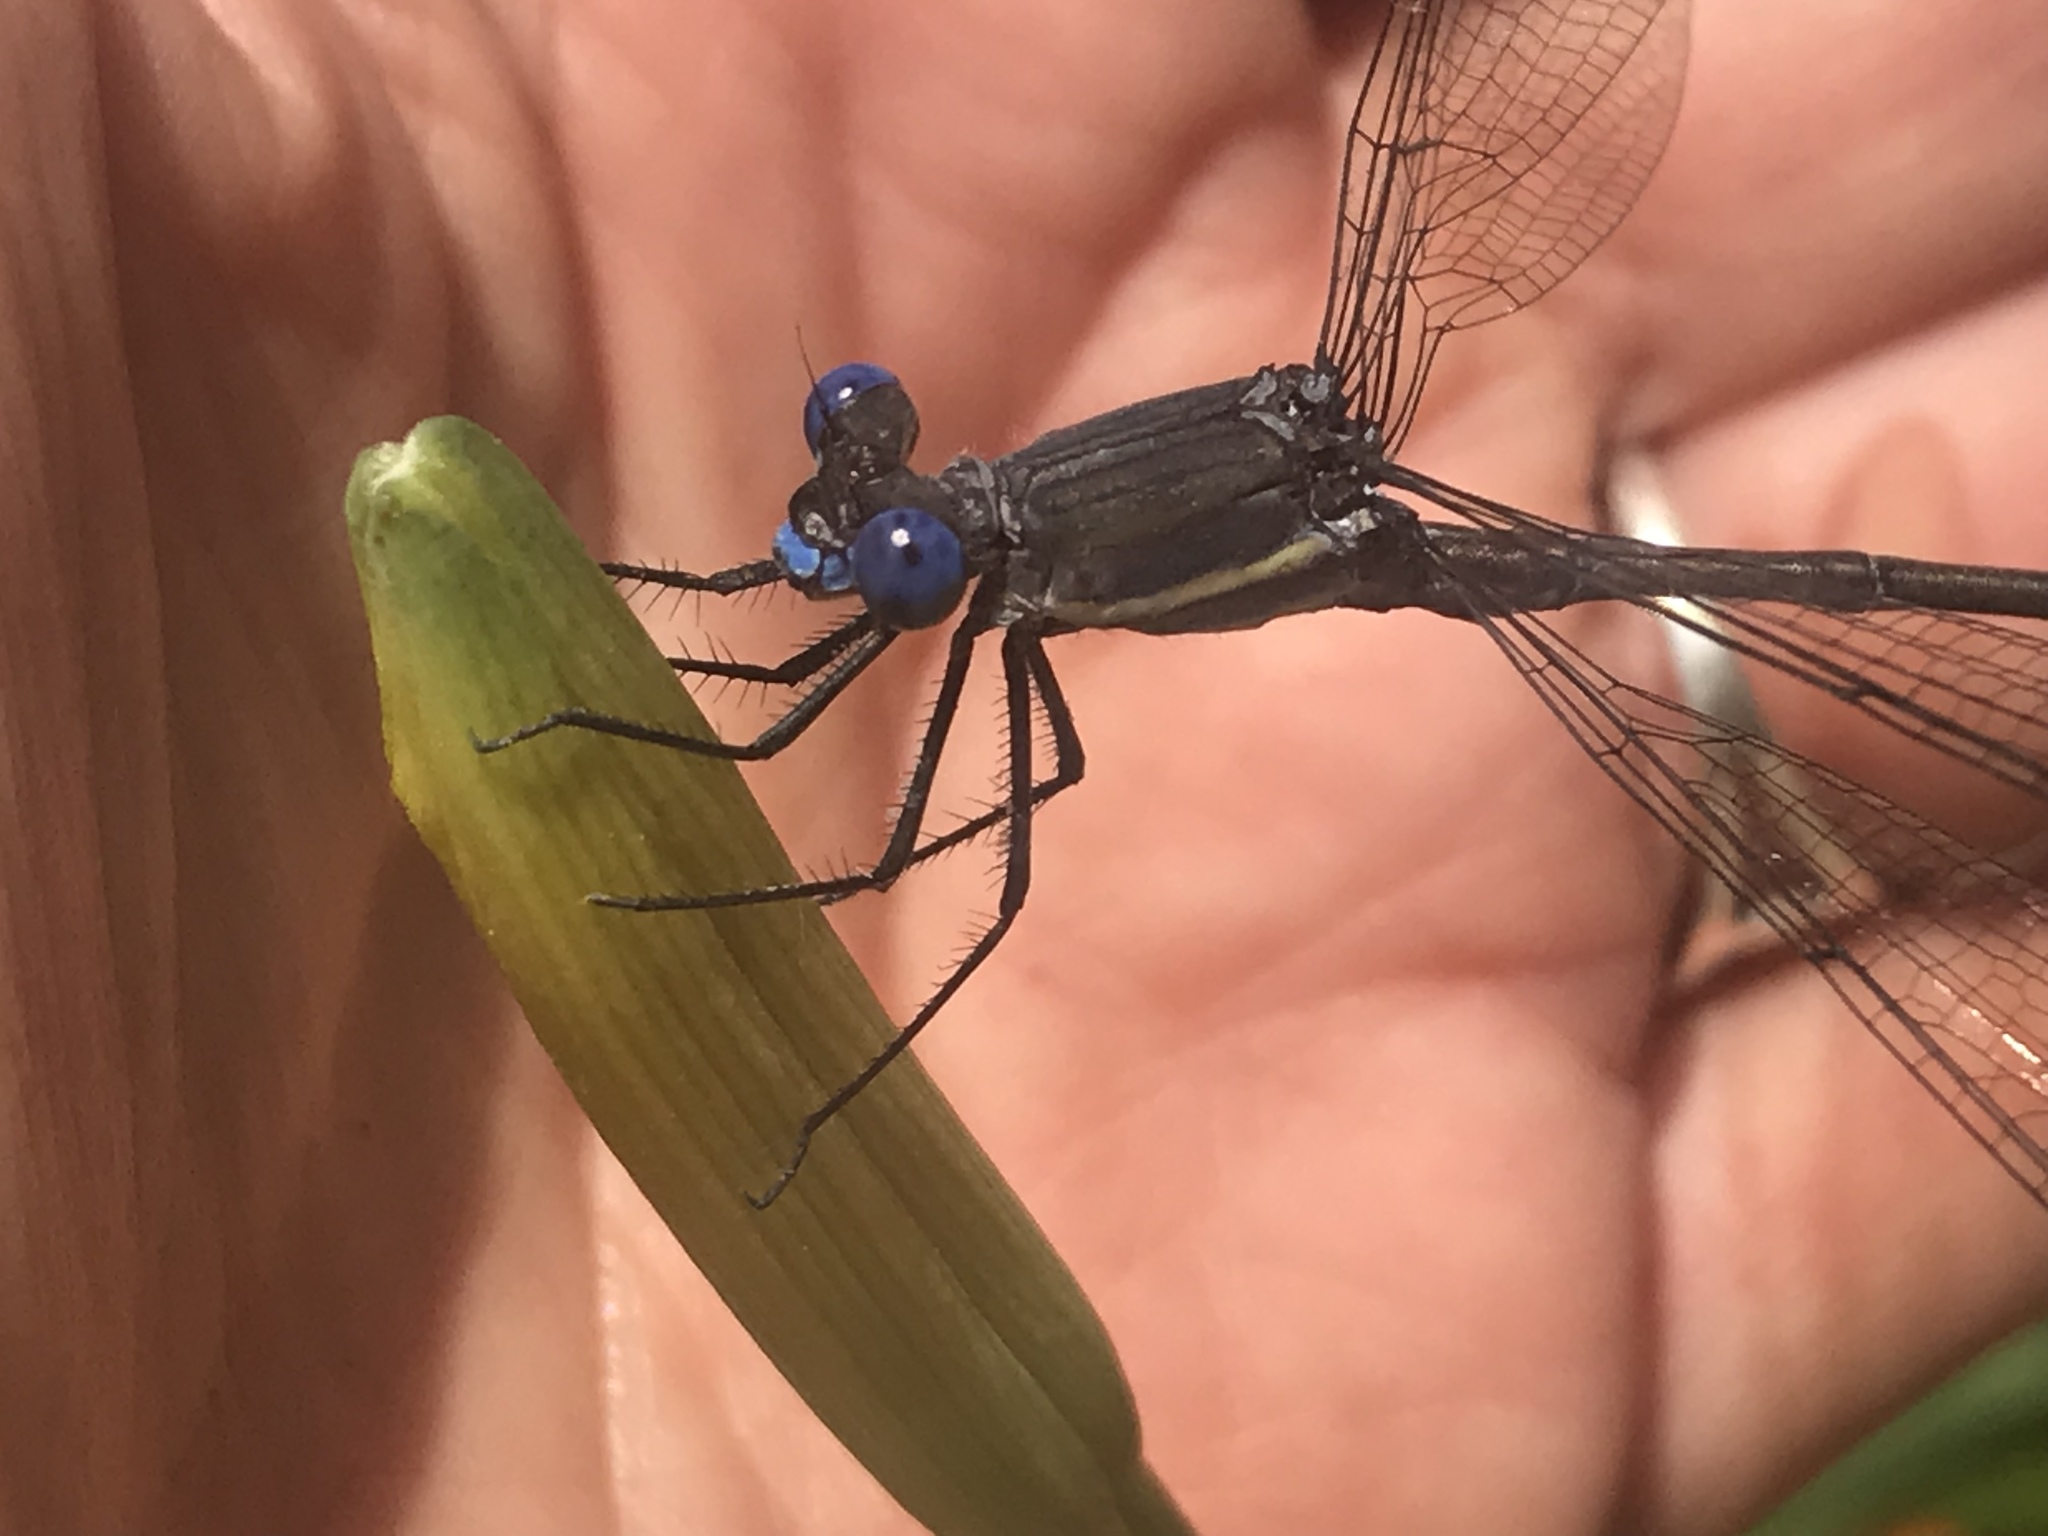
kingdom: Animalia
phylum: Arthropoda
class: Insecta
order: Odonata
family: Lestidae
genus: Archilestes
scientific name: Archilestes grandis
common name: Great spreadwing
